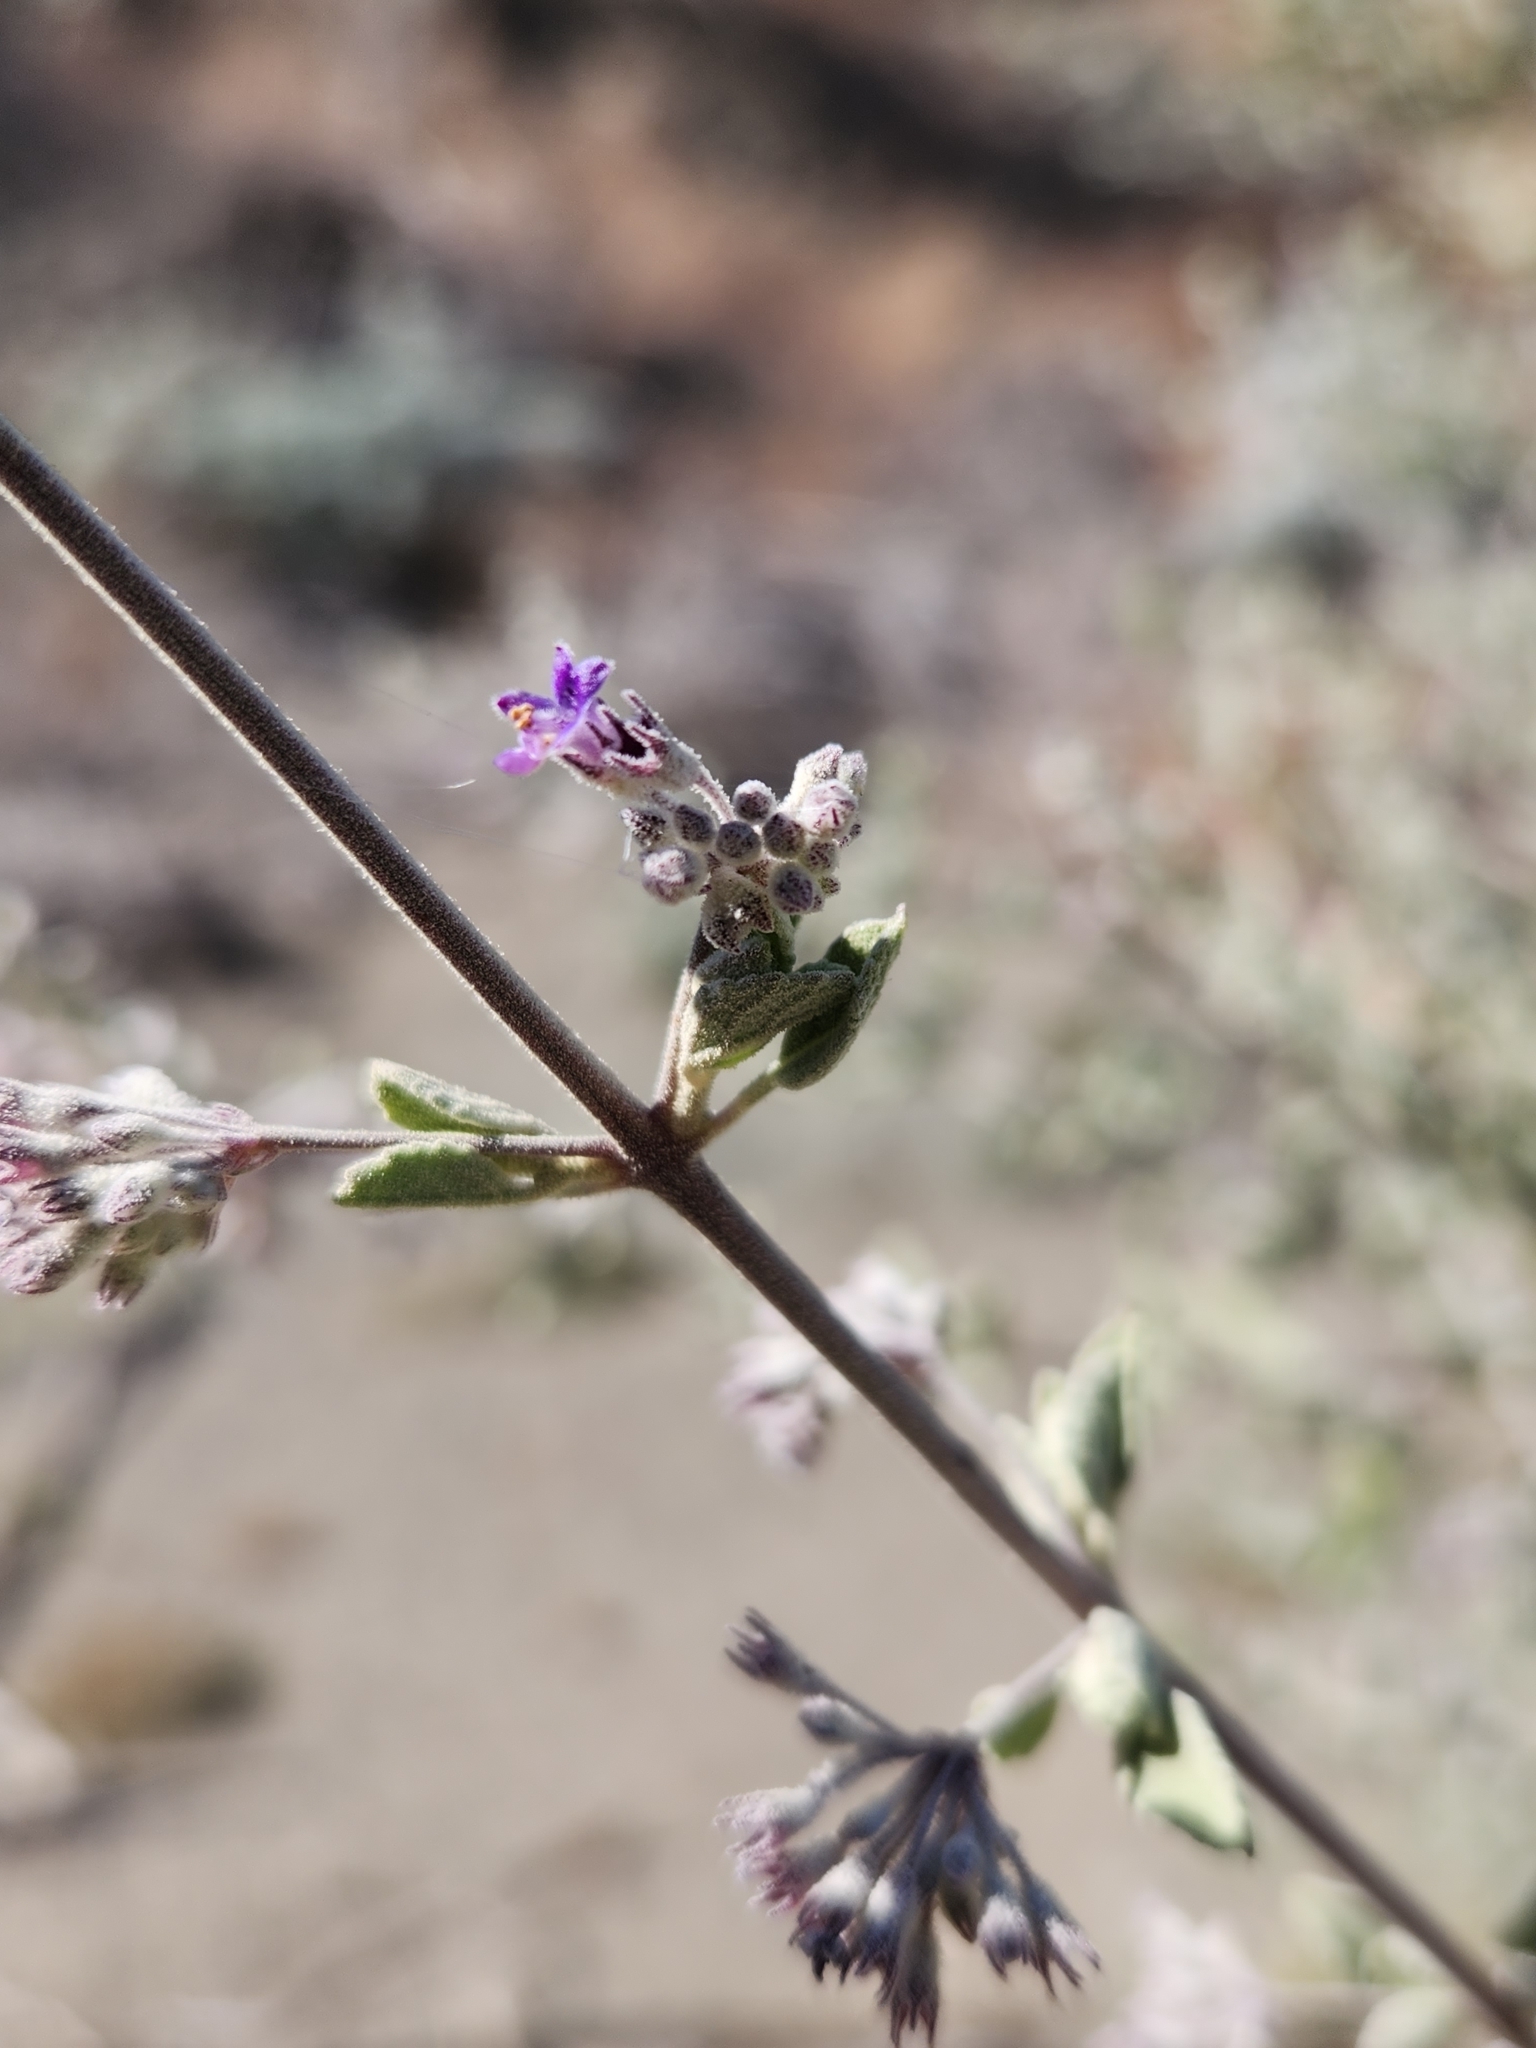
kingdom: Plantae
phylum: Tracheophyta
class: Magnoliopsida
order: Lamiales
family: Lamiaceae
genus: Condea
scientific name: Condea emoryi
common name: Chia
